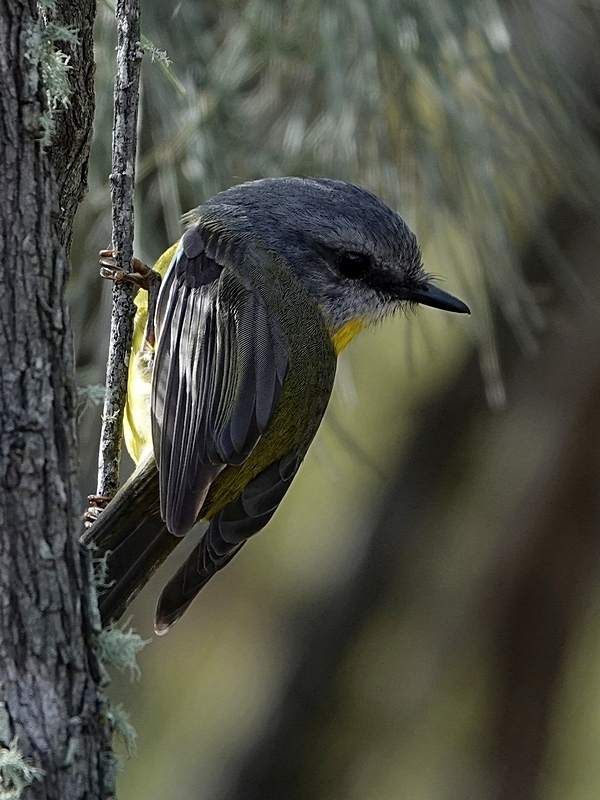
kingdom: Animalia
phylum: Chordata
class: Aves
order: Passeriformes
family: Petroicidae
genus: Eopsaltria
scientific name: Eopsaltria australis
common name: Eastern yellow robin
